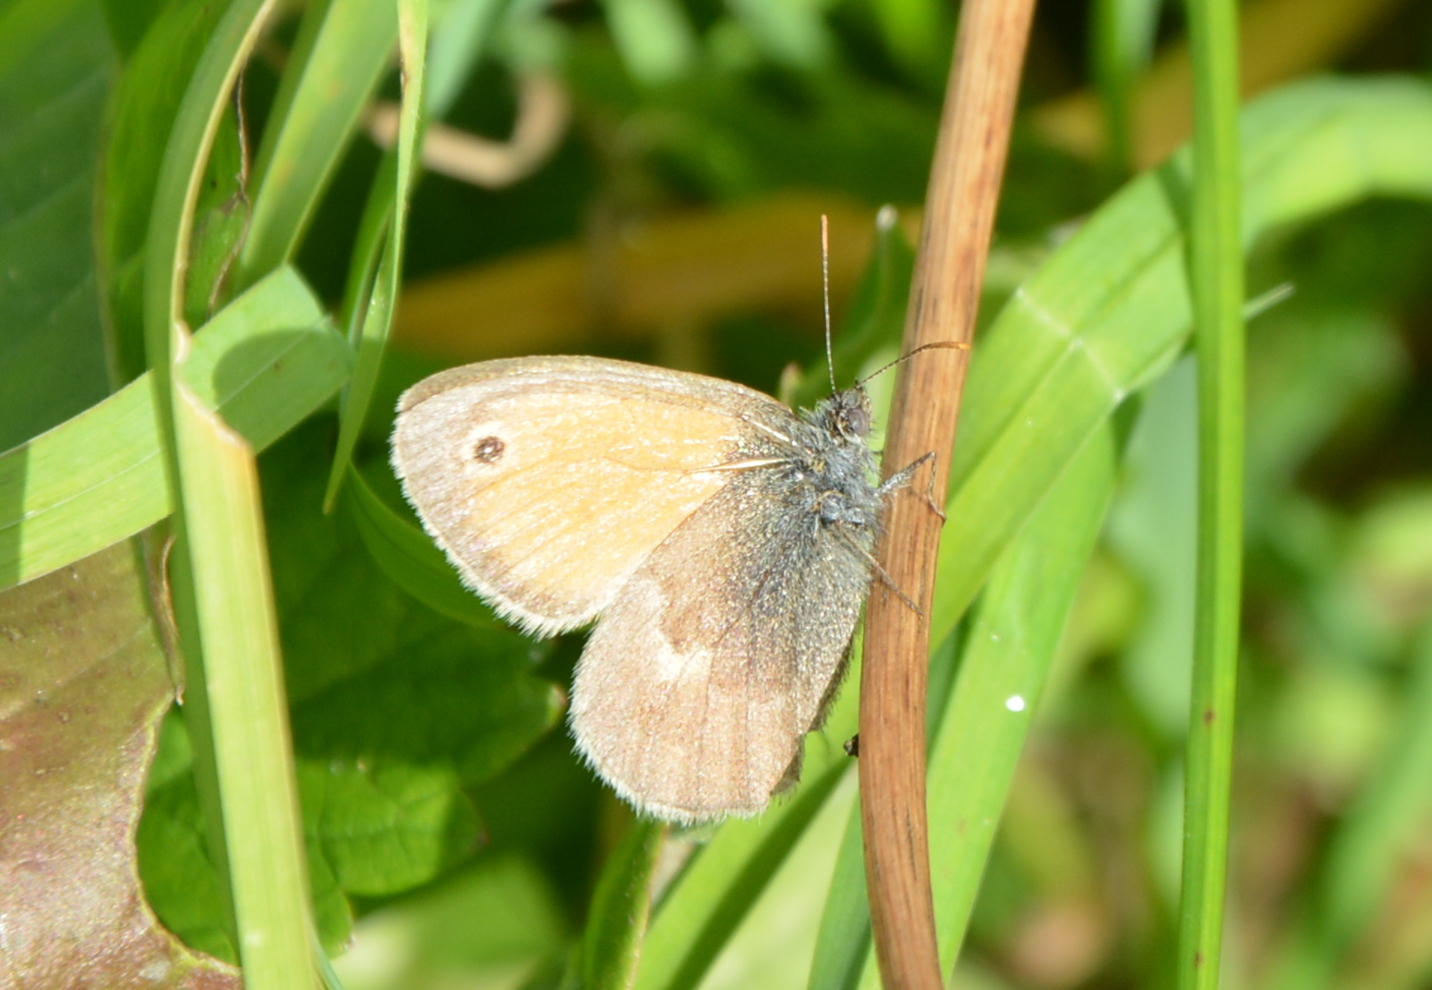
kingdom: Animalia
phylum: Arthropoda
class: Insecta
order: Lepidoptera
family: Nymphalidae
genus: Coenonympha
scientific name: Coenonympha pamphilus
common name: Small heath
